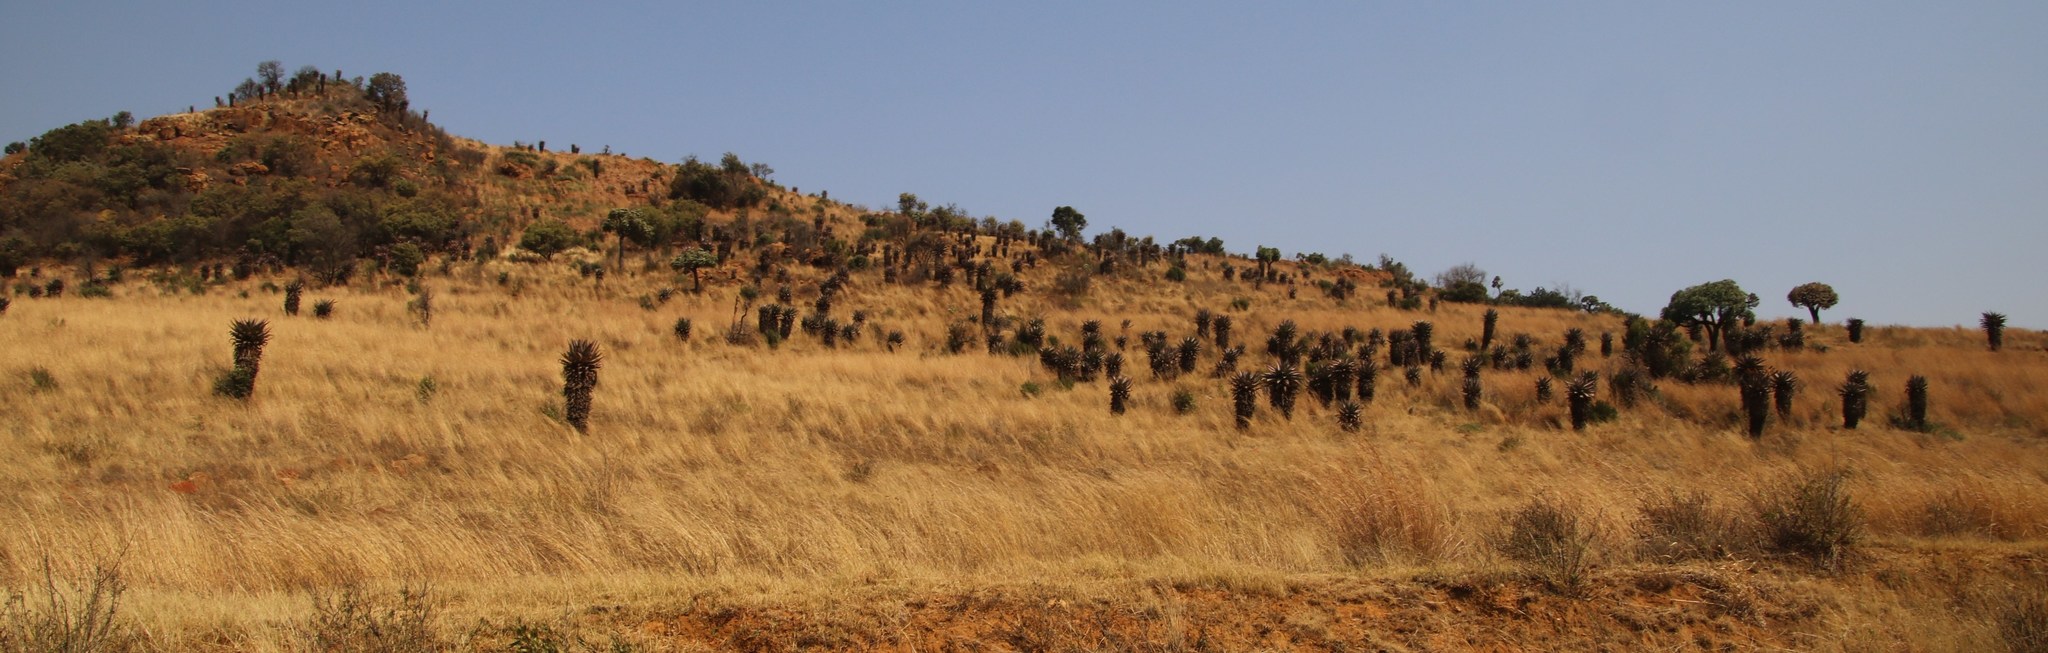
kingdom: Plantae
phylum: Tracheophyta
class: Liliopsida
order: Asparagales
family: Asphodelaceae
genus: Aloe
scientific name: Aloe marlothii
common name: Flat-flowered aloe
